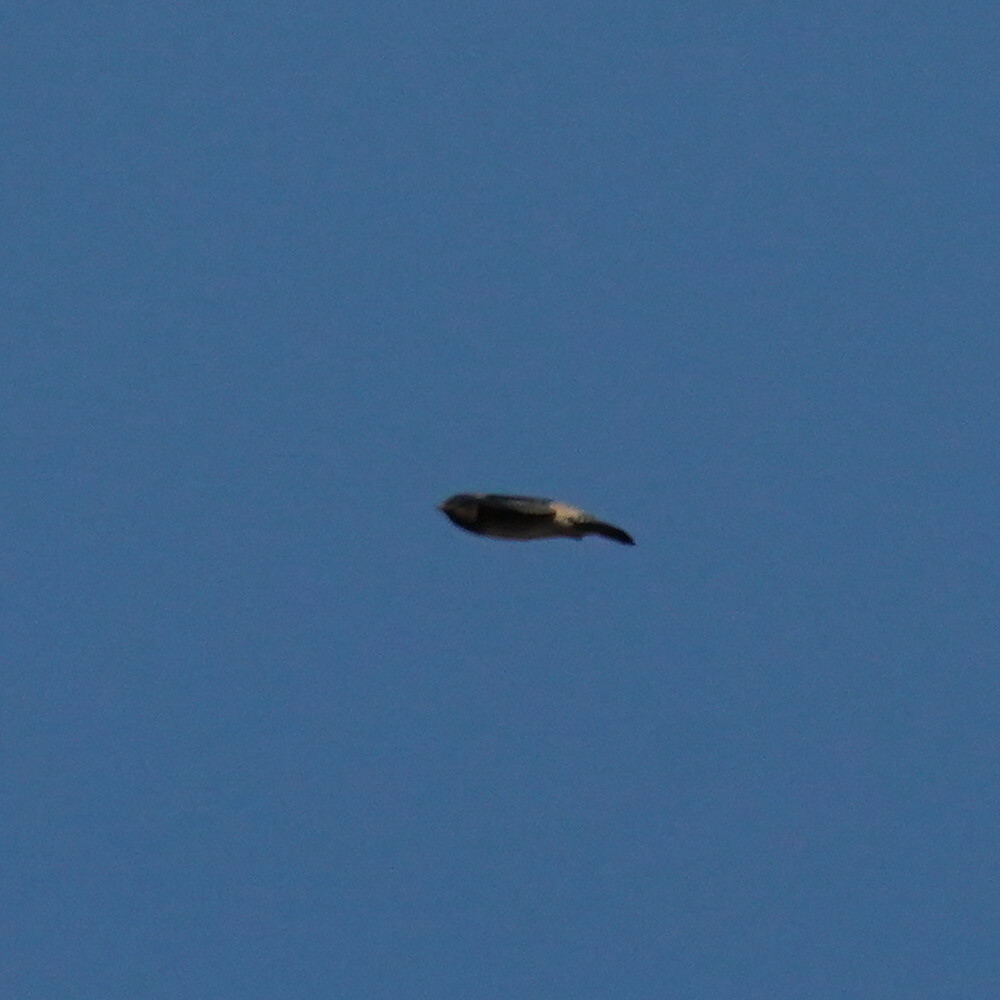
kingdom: Animalia
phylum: Chordata
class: Aves
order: Passeriformes
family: Hirundinidae
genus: Petrochelidon
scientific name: Petrochelidon pyrrhonota
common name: American cliff swallow
